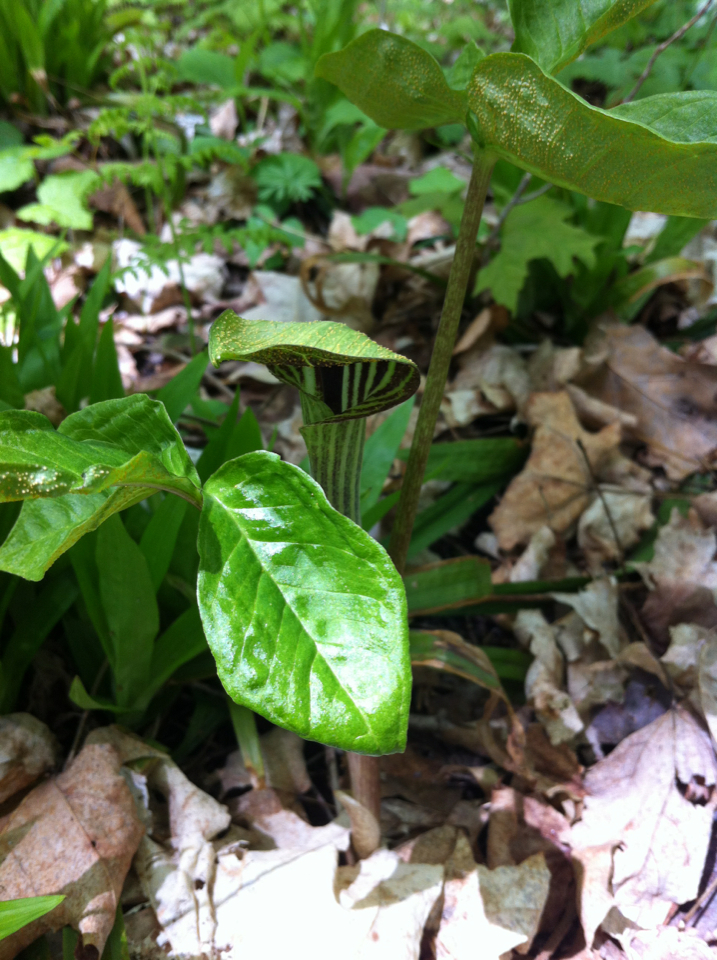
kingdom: Plantae
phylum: Tracheophyta
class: Liliopsida
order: Alismatales
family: Araceae
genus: Arisaema
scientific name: Arisaema triphyllum
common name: Jack-in-the-pulpit
